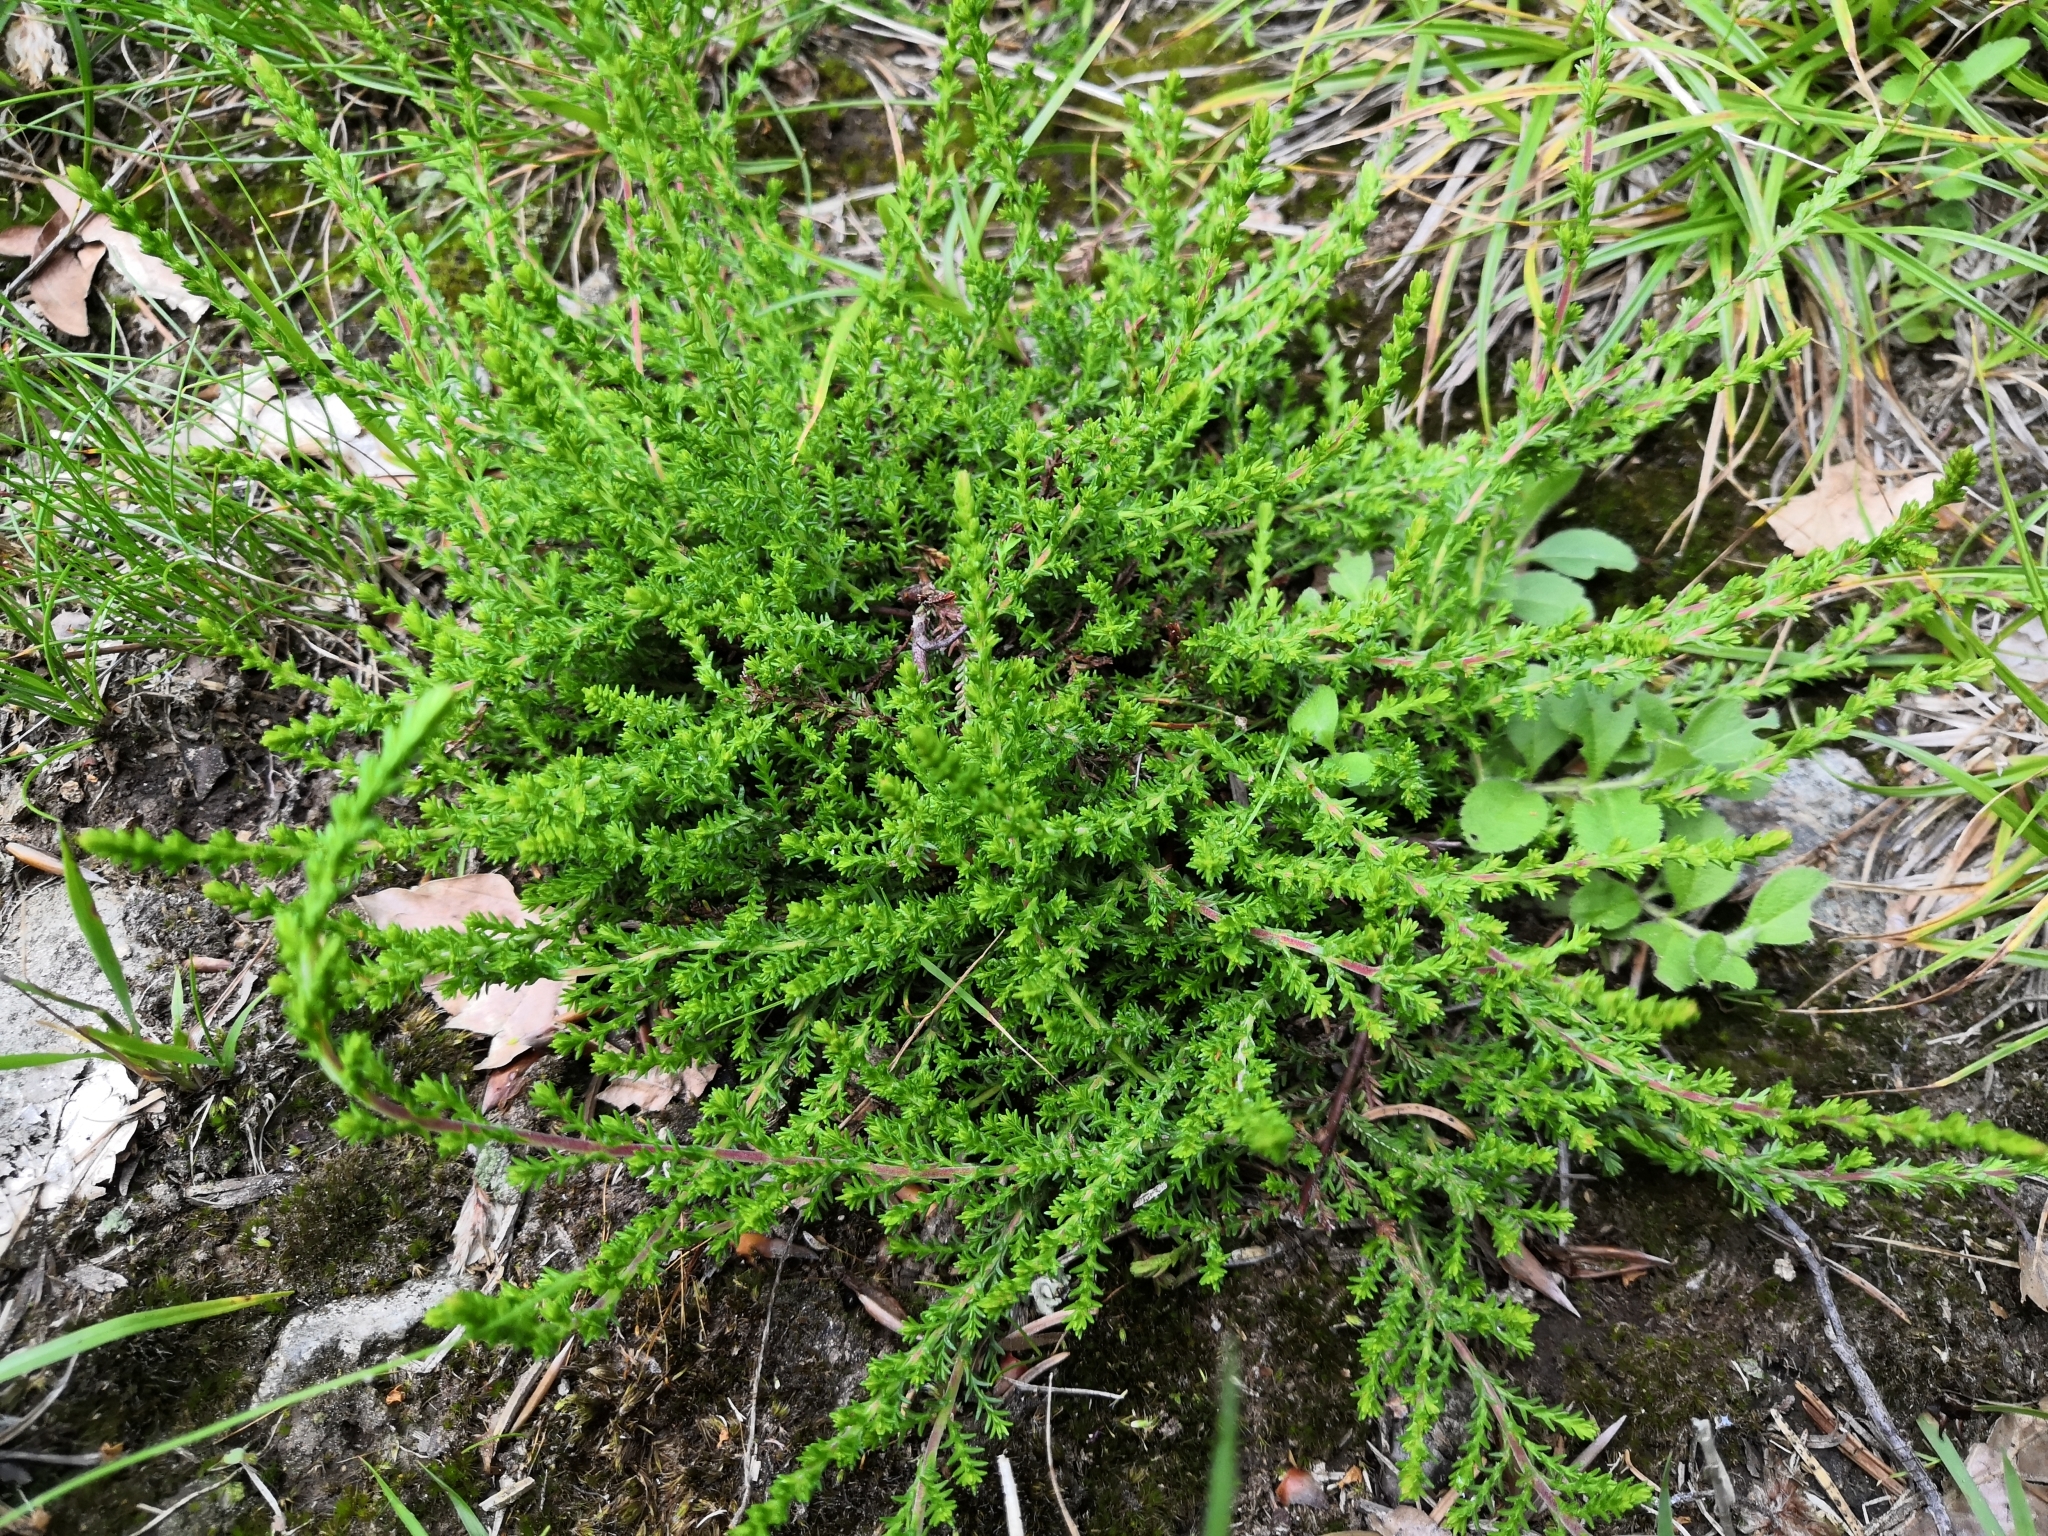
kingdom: Plantae
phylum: Tracheophyta
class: Magnoliopsida
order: Ericales
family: Ericaceae
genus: Calluna
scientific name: Calluna vulgaris
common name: Heather
